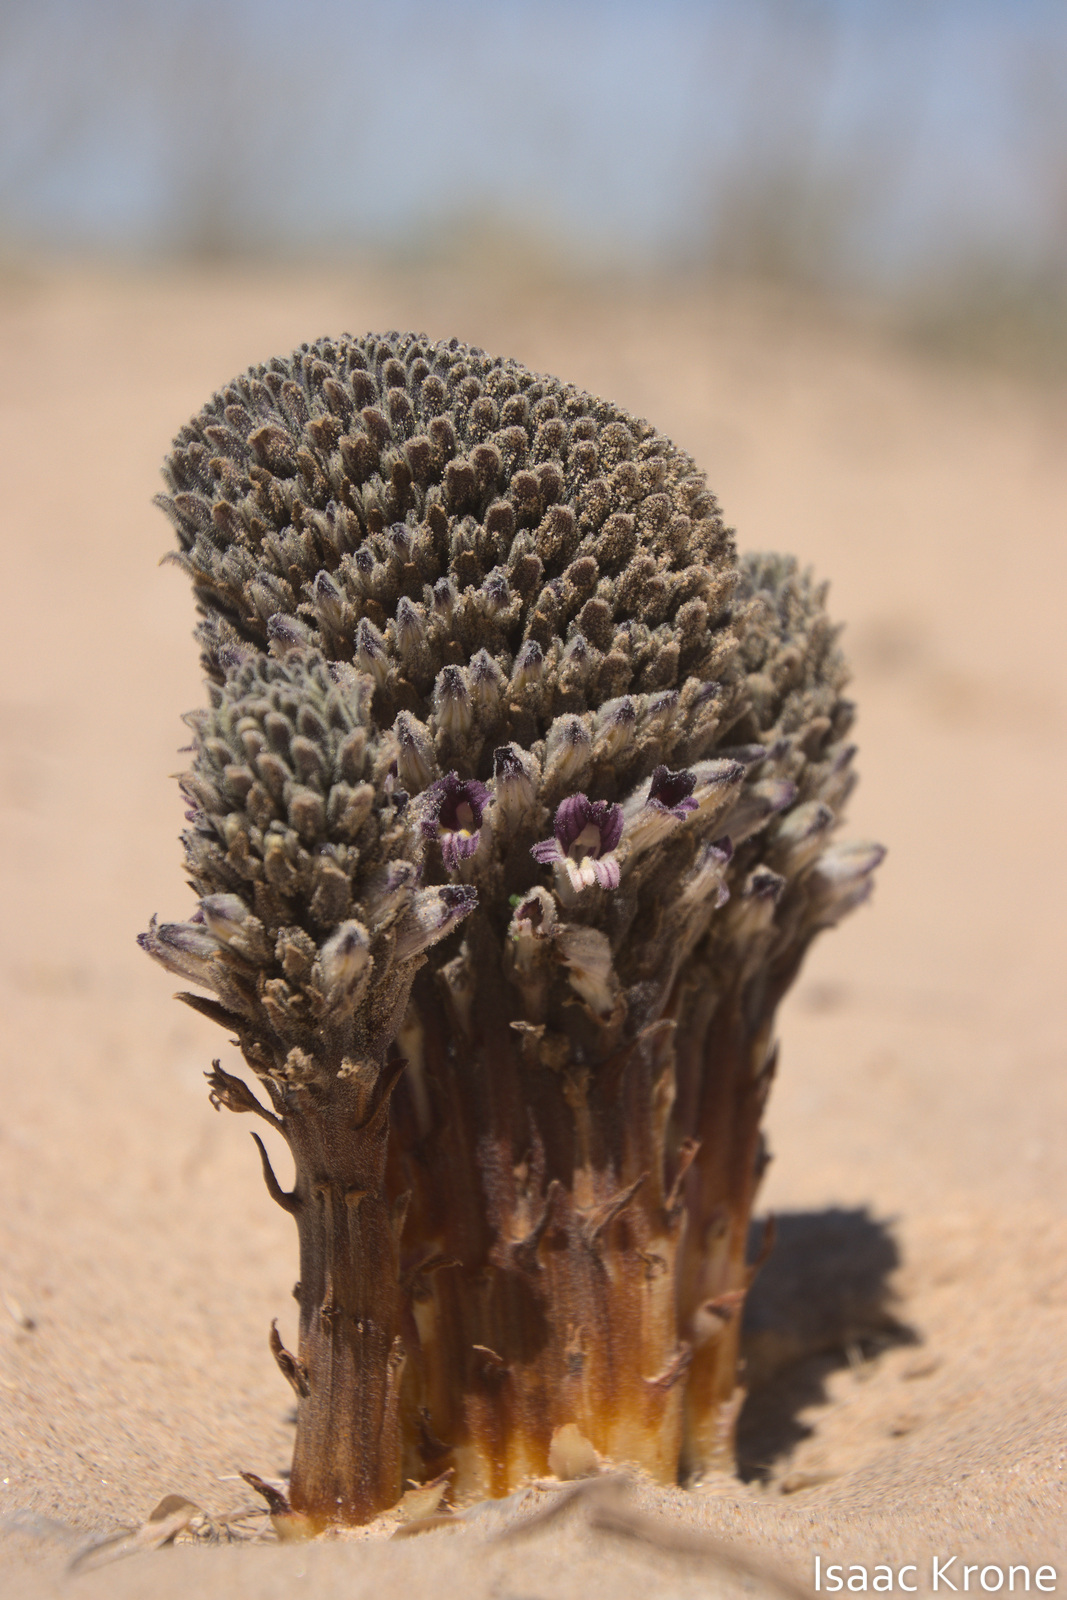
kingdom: Plantae
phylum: Tracheophyta
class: Magnoliopsida
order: Lamiales
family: Orobanchaceae
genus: Aphyllon
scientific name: Aphyllon cooperi
